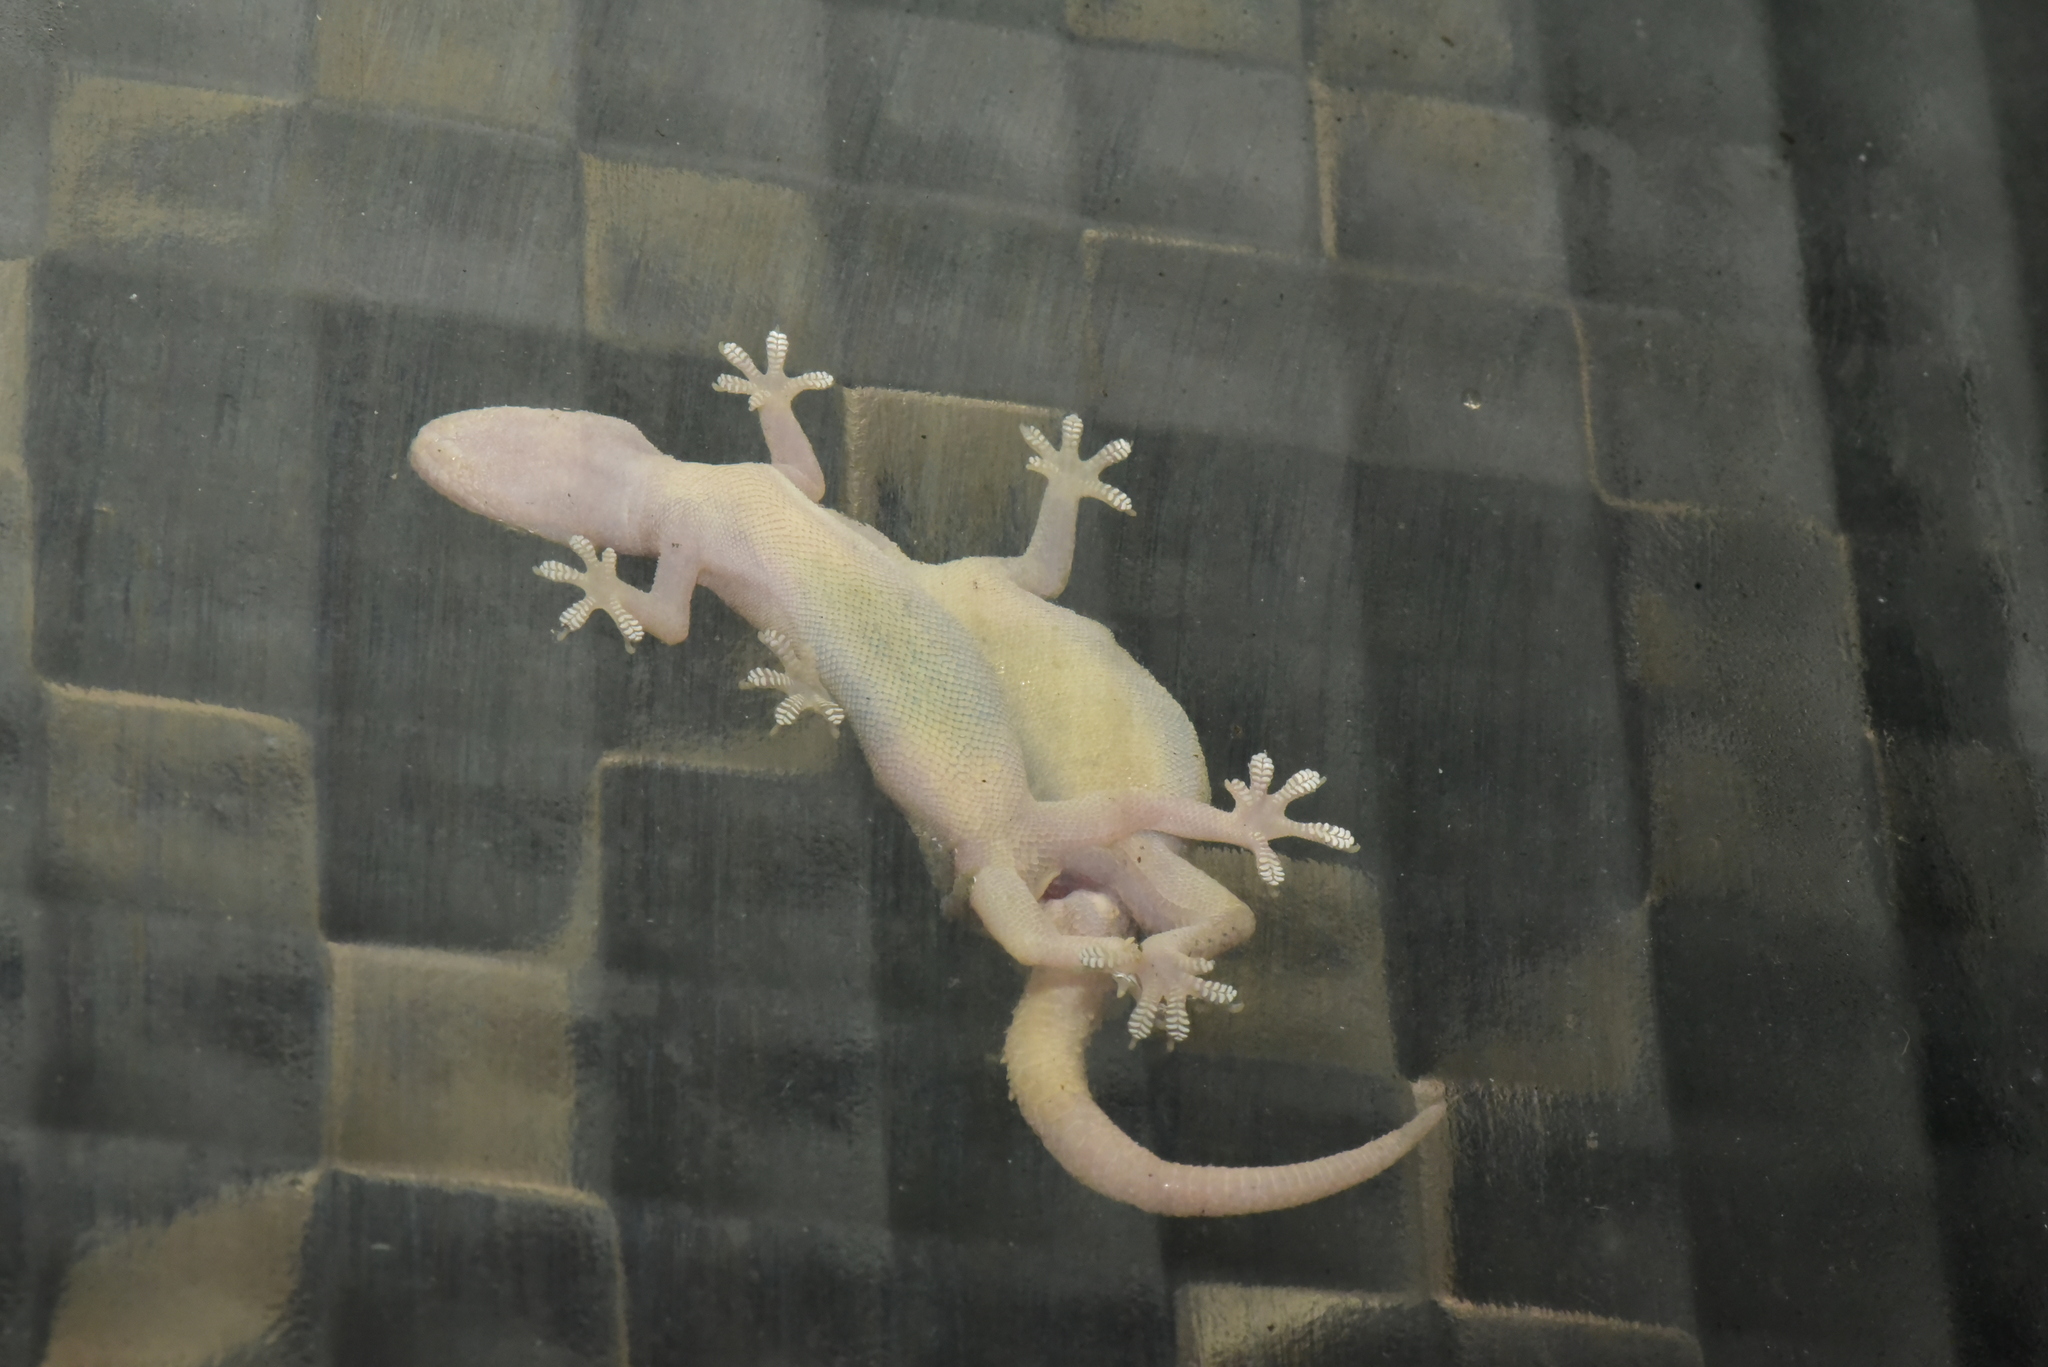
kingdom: Animalia
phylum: Chordata
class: Squamata
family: Gekkonidae
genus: Hemidactylus
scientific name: Hemidactylus frenatus
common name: Common house gecko
